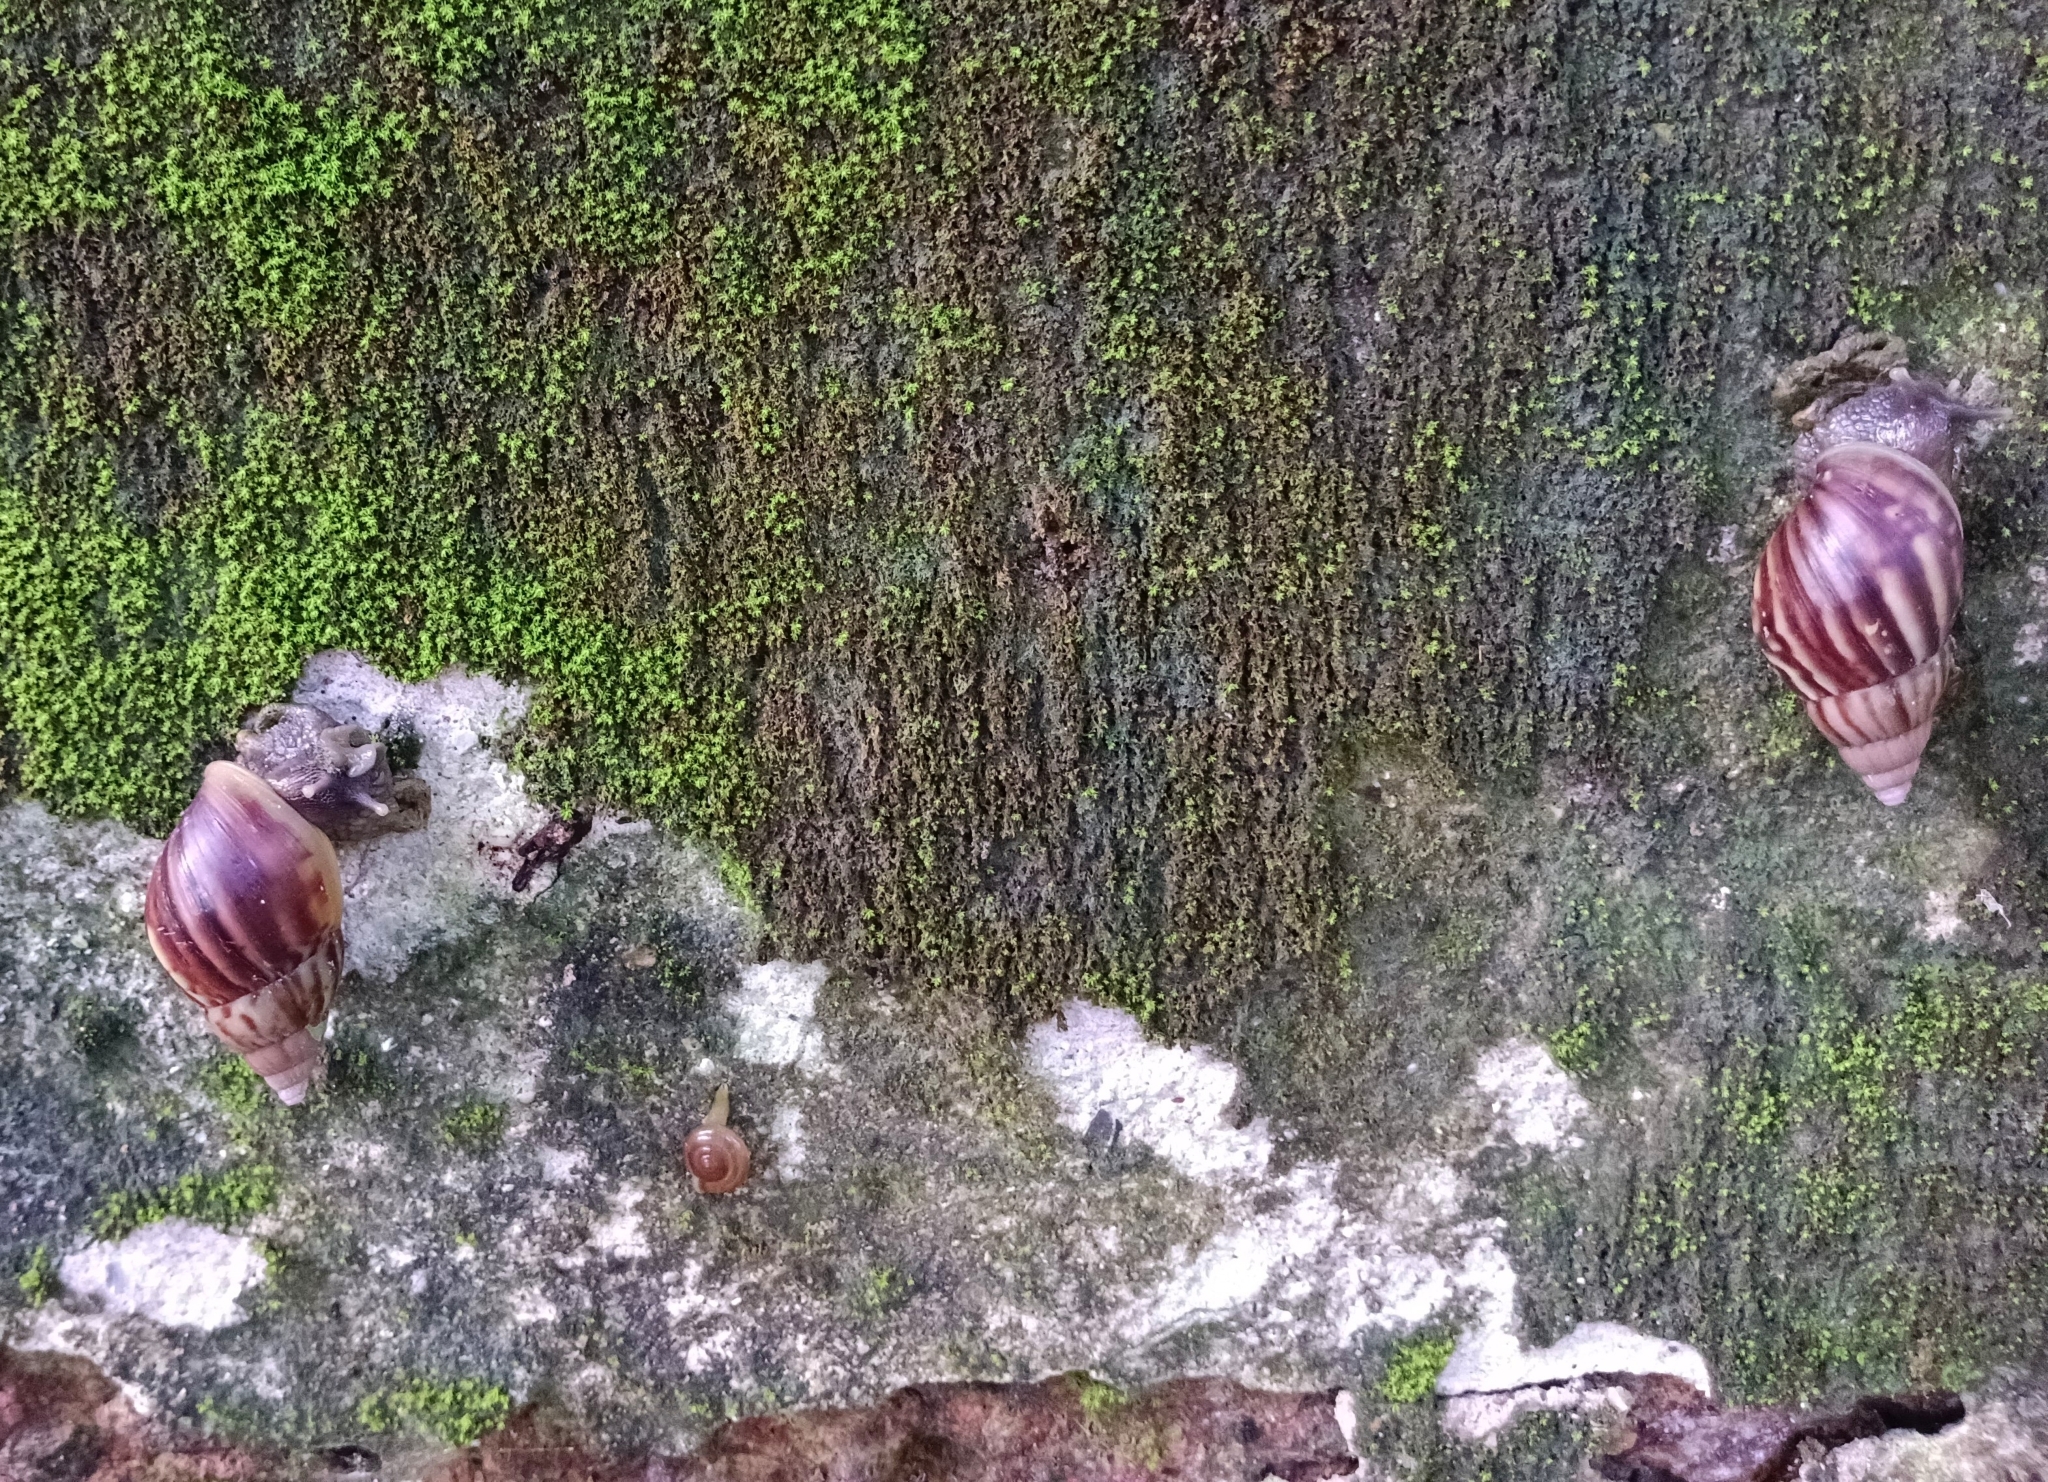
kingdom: Animalia
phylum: Mollusca
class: Gastropoda
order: Stylommatophora
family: Achatinidae
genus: Lissachatina
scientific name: Lissachatina fulica
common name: Giant african snail
